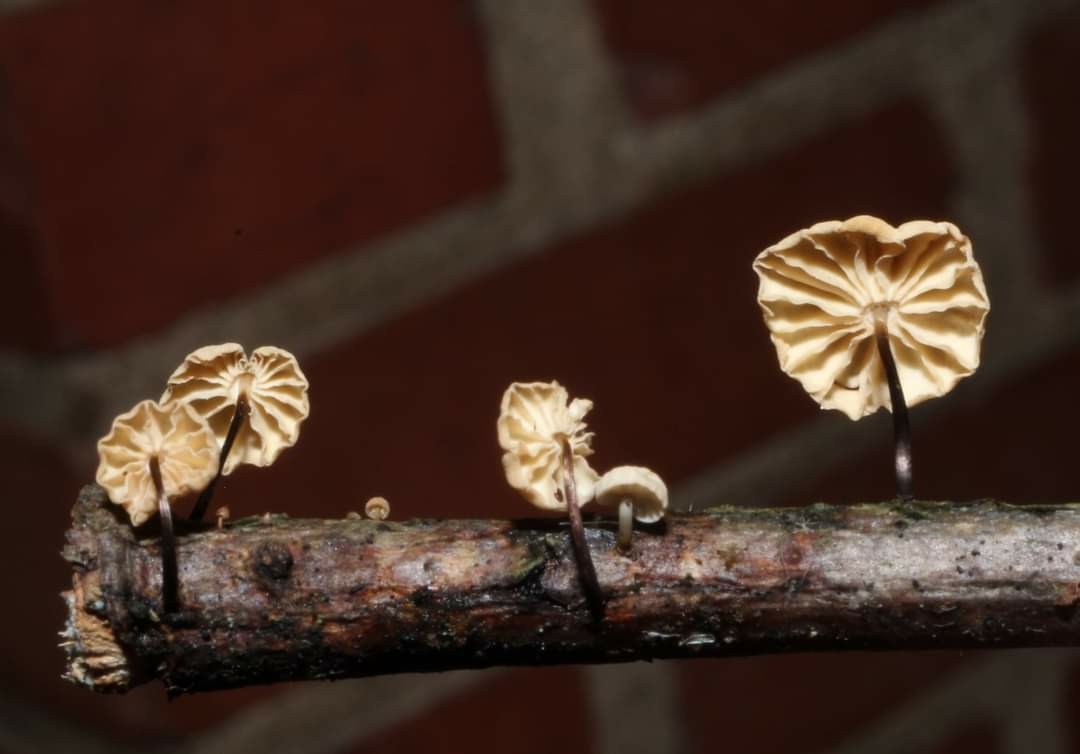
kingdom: Fungi
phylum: Basidiomycota
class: Agaricomycetes
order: Agaricales
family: Marasmiaceae
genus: Marasmius
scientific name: Marasmius rotula
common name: Collared parachute
